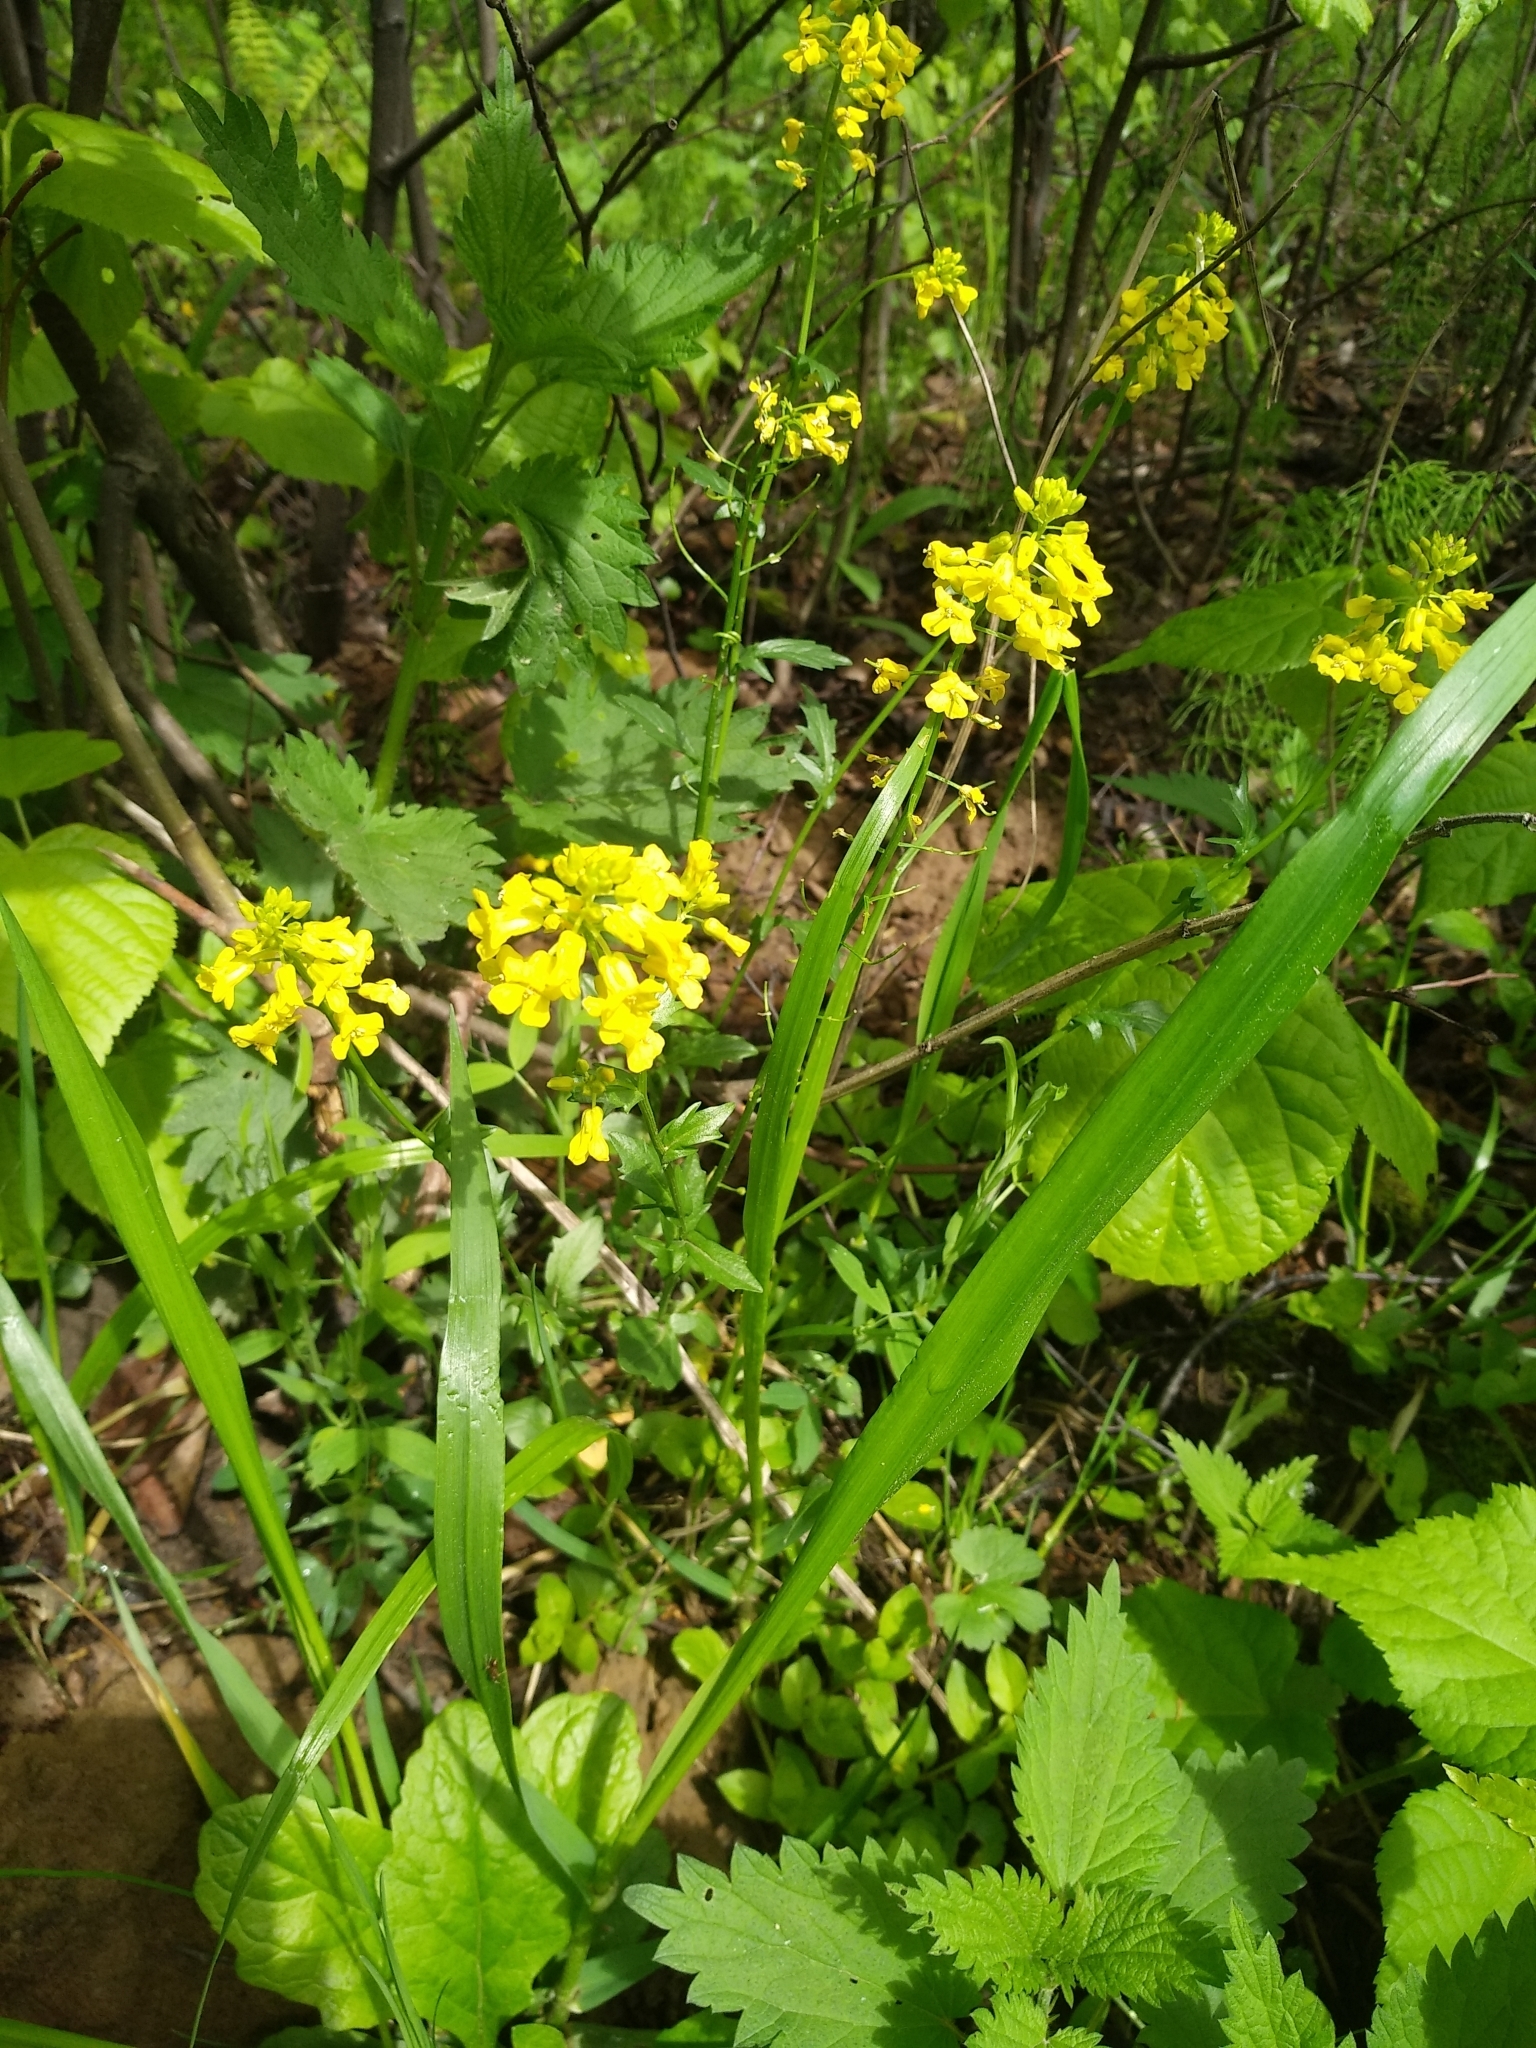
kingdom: Plantae
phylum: Tracheophyta
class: Magnoliopsida
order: Brassicales
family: Brassicaceae
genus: Barbarea
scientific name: Barbarea vulgaris
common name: Cressy-greens
